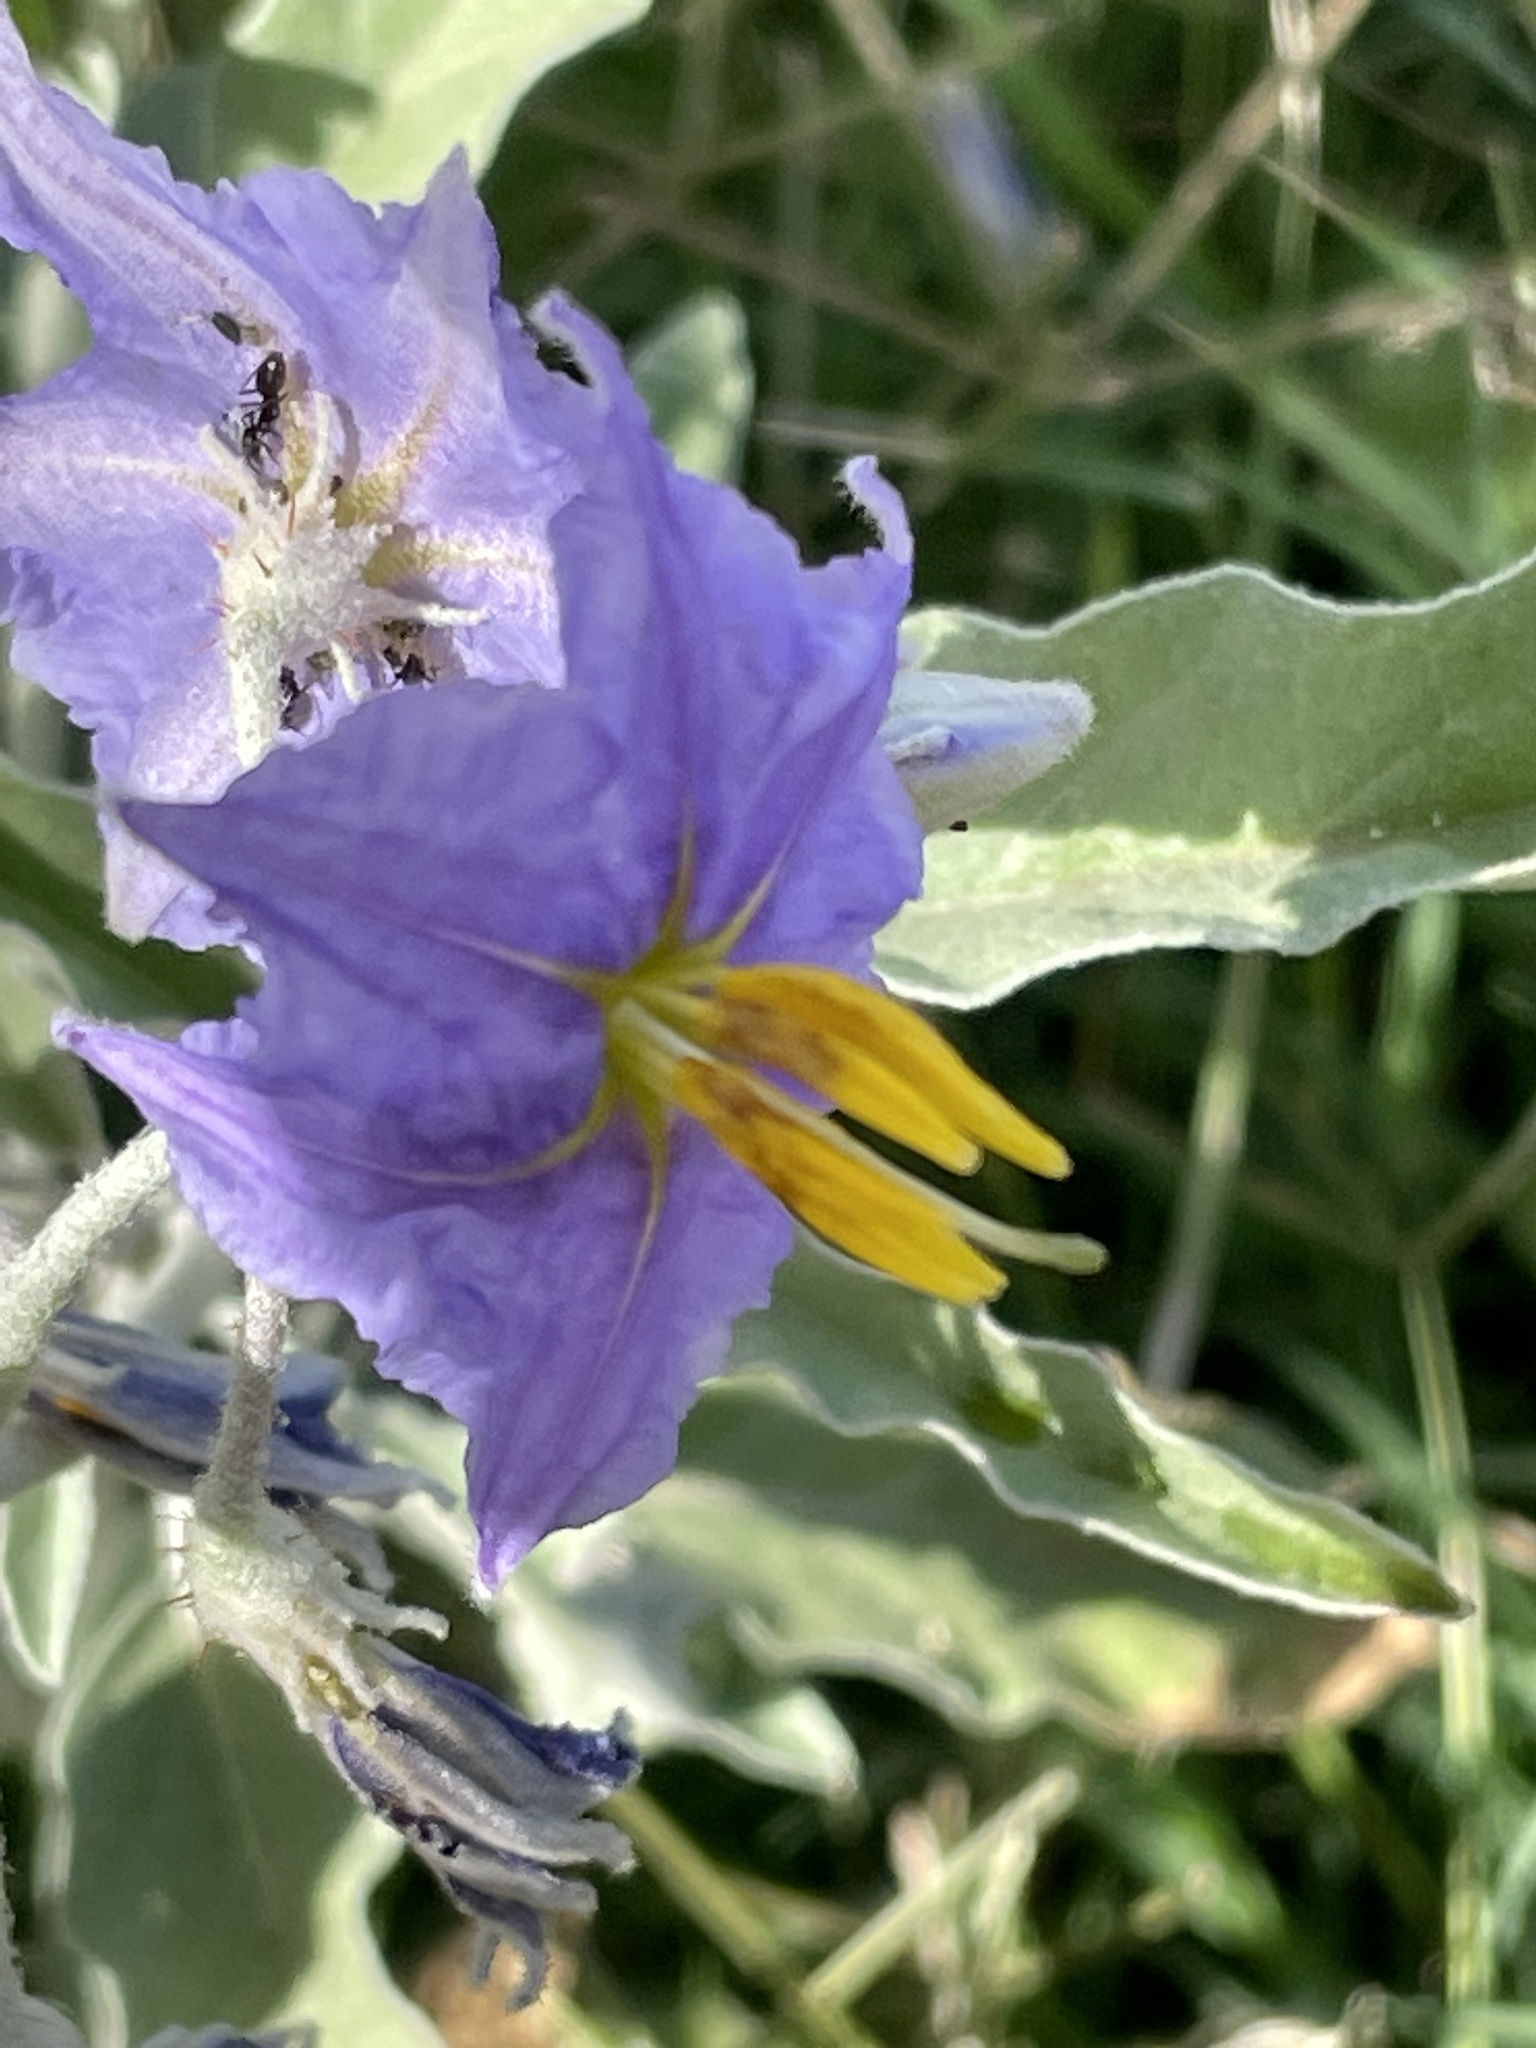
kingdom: Plantae
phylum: Tracheophyta
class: Magnoliopsida
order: Solanales
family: Solanaceae
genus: Solanum
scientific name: Solanum elaeagnifolium
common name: Silverleaf nightshade
